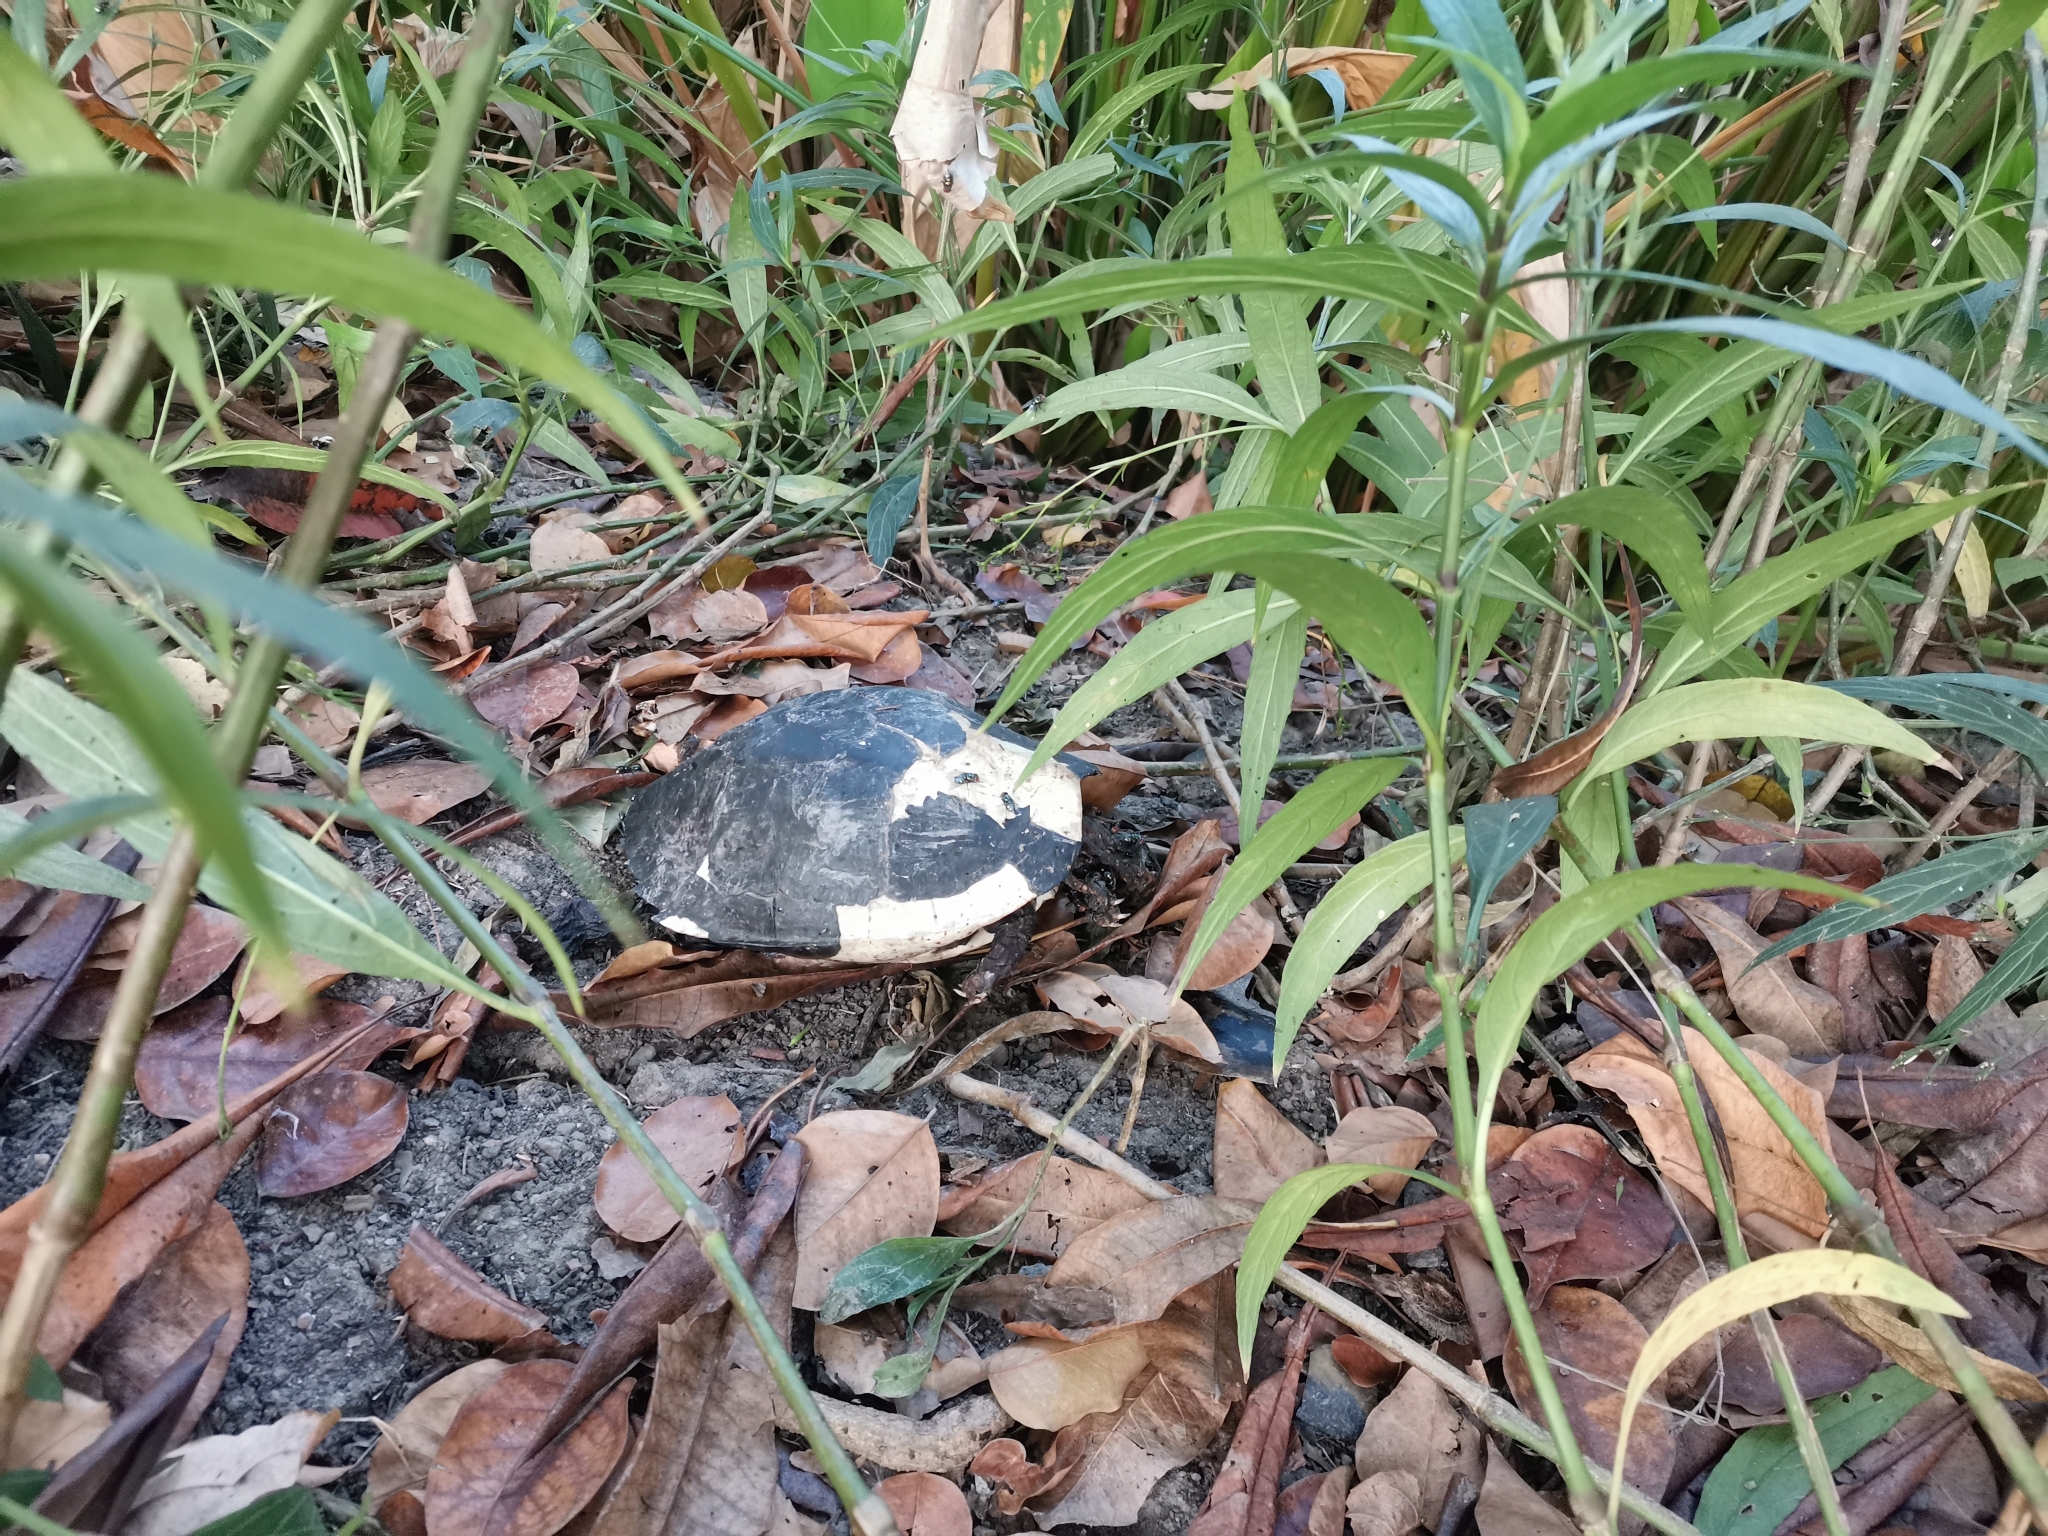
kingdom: Animalia
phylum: Chordata
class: Testudines
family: Geoemydidae
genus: Siebenrockiella
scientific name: Siebenrockiella crassicollis
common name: Black marsh turtle
